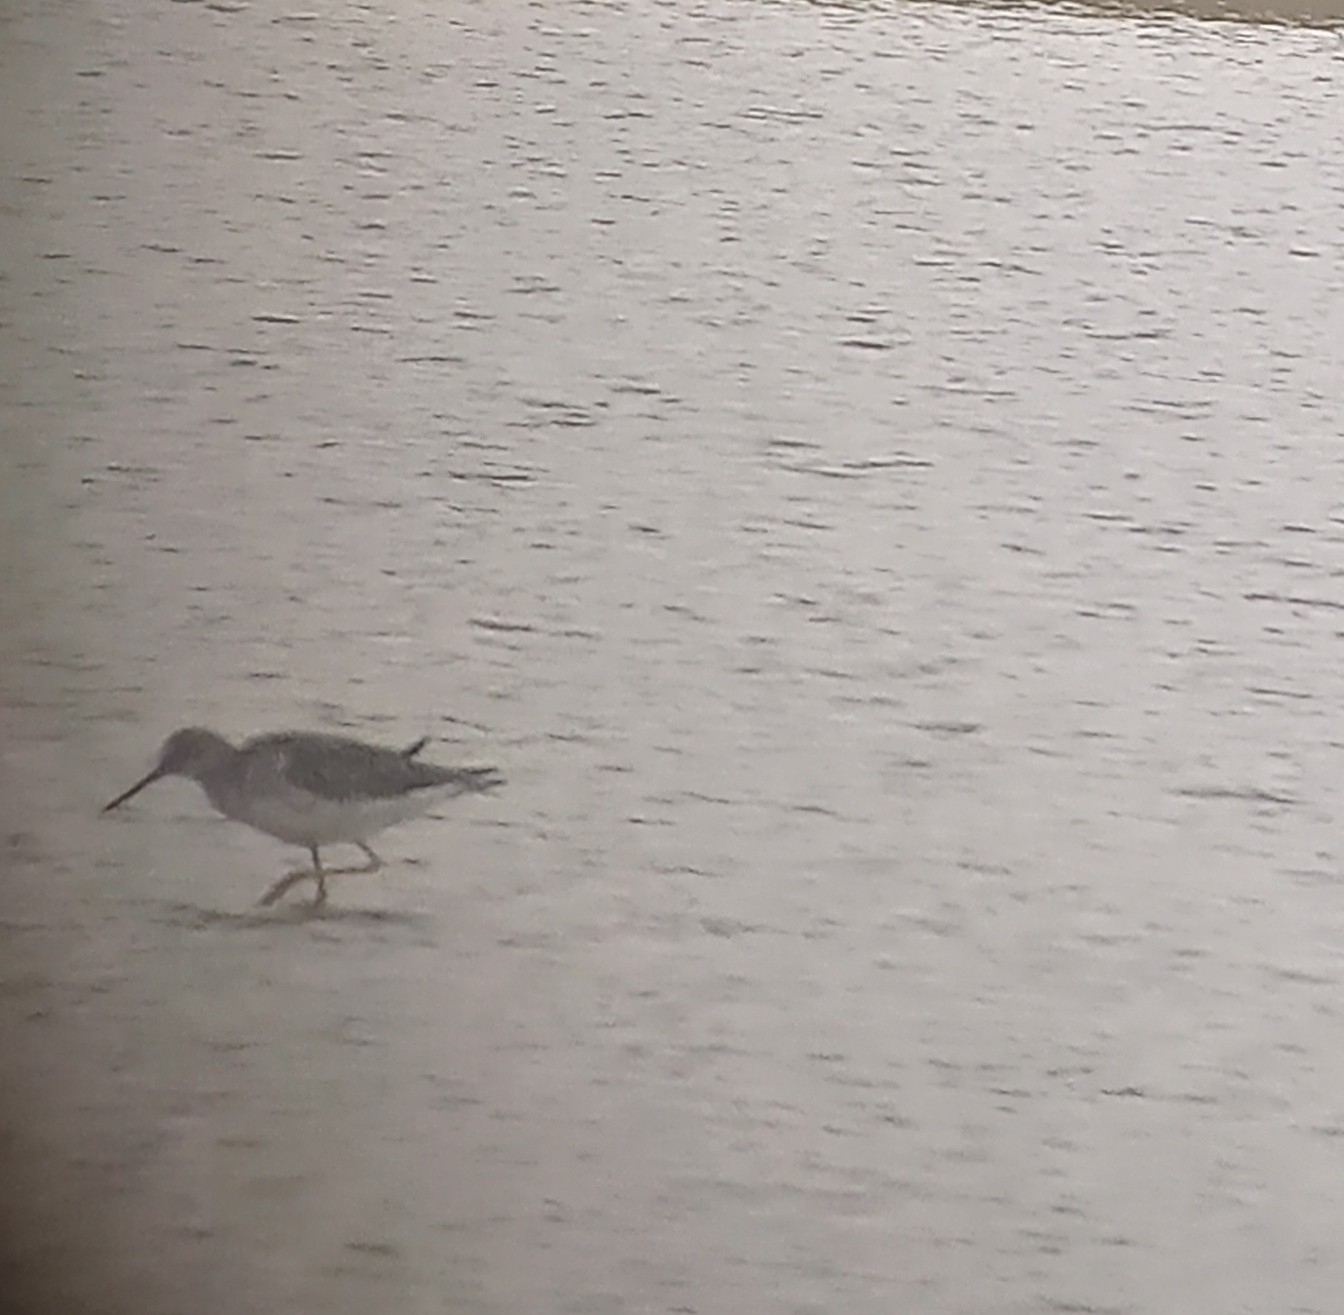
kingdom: Animalia
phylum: Chordata
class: Aves
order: Charadriiformes
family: Scolopacidae
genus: Tringa
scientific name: Tringa melanoleuca
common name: Greater yellowlegs
